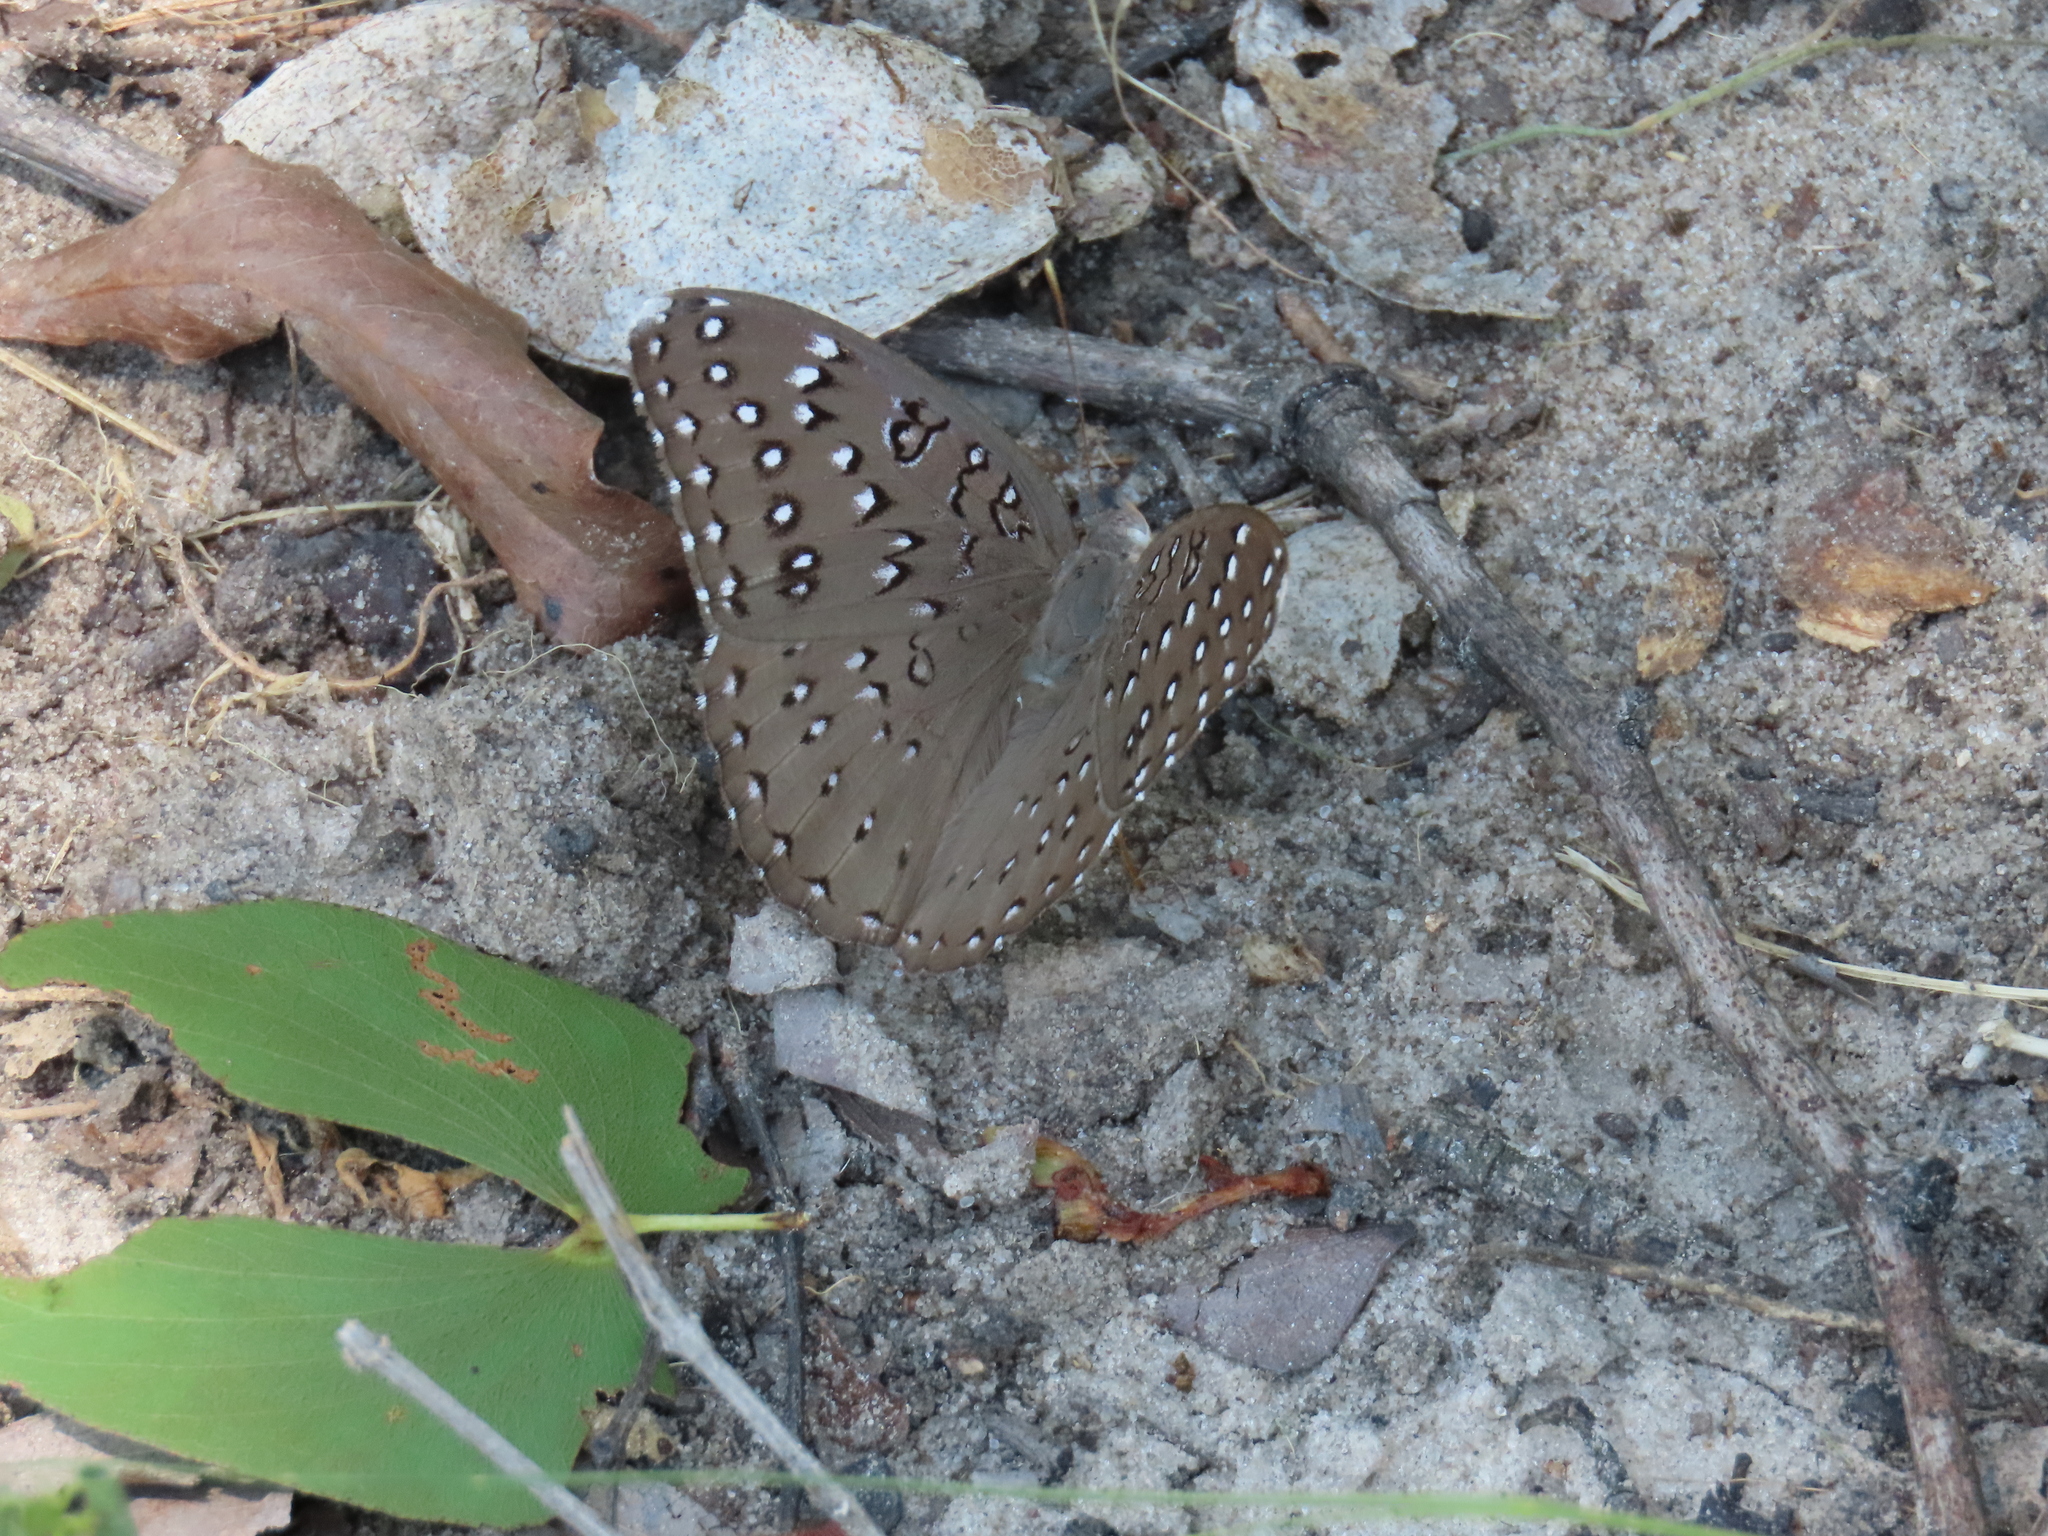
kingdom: Animalia
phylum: Arthropoda
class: Insecta
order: Lepidoptera
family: Nymphalidae
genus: Hamanumida
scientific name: Hamanumida daedalus
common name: Guinea-fowl butterfly
